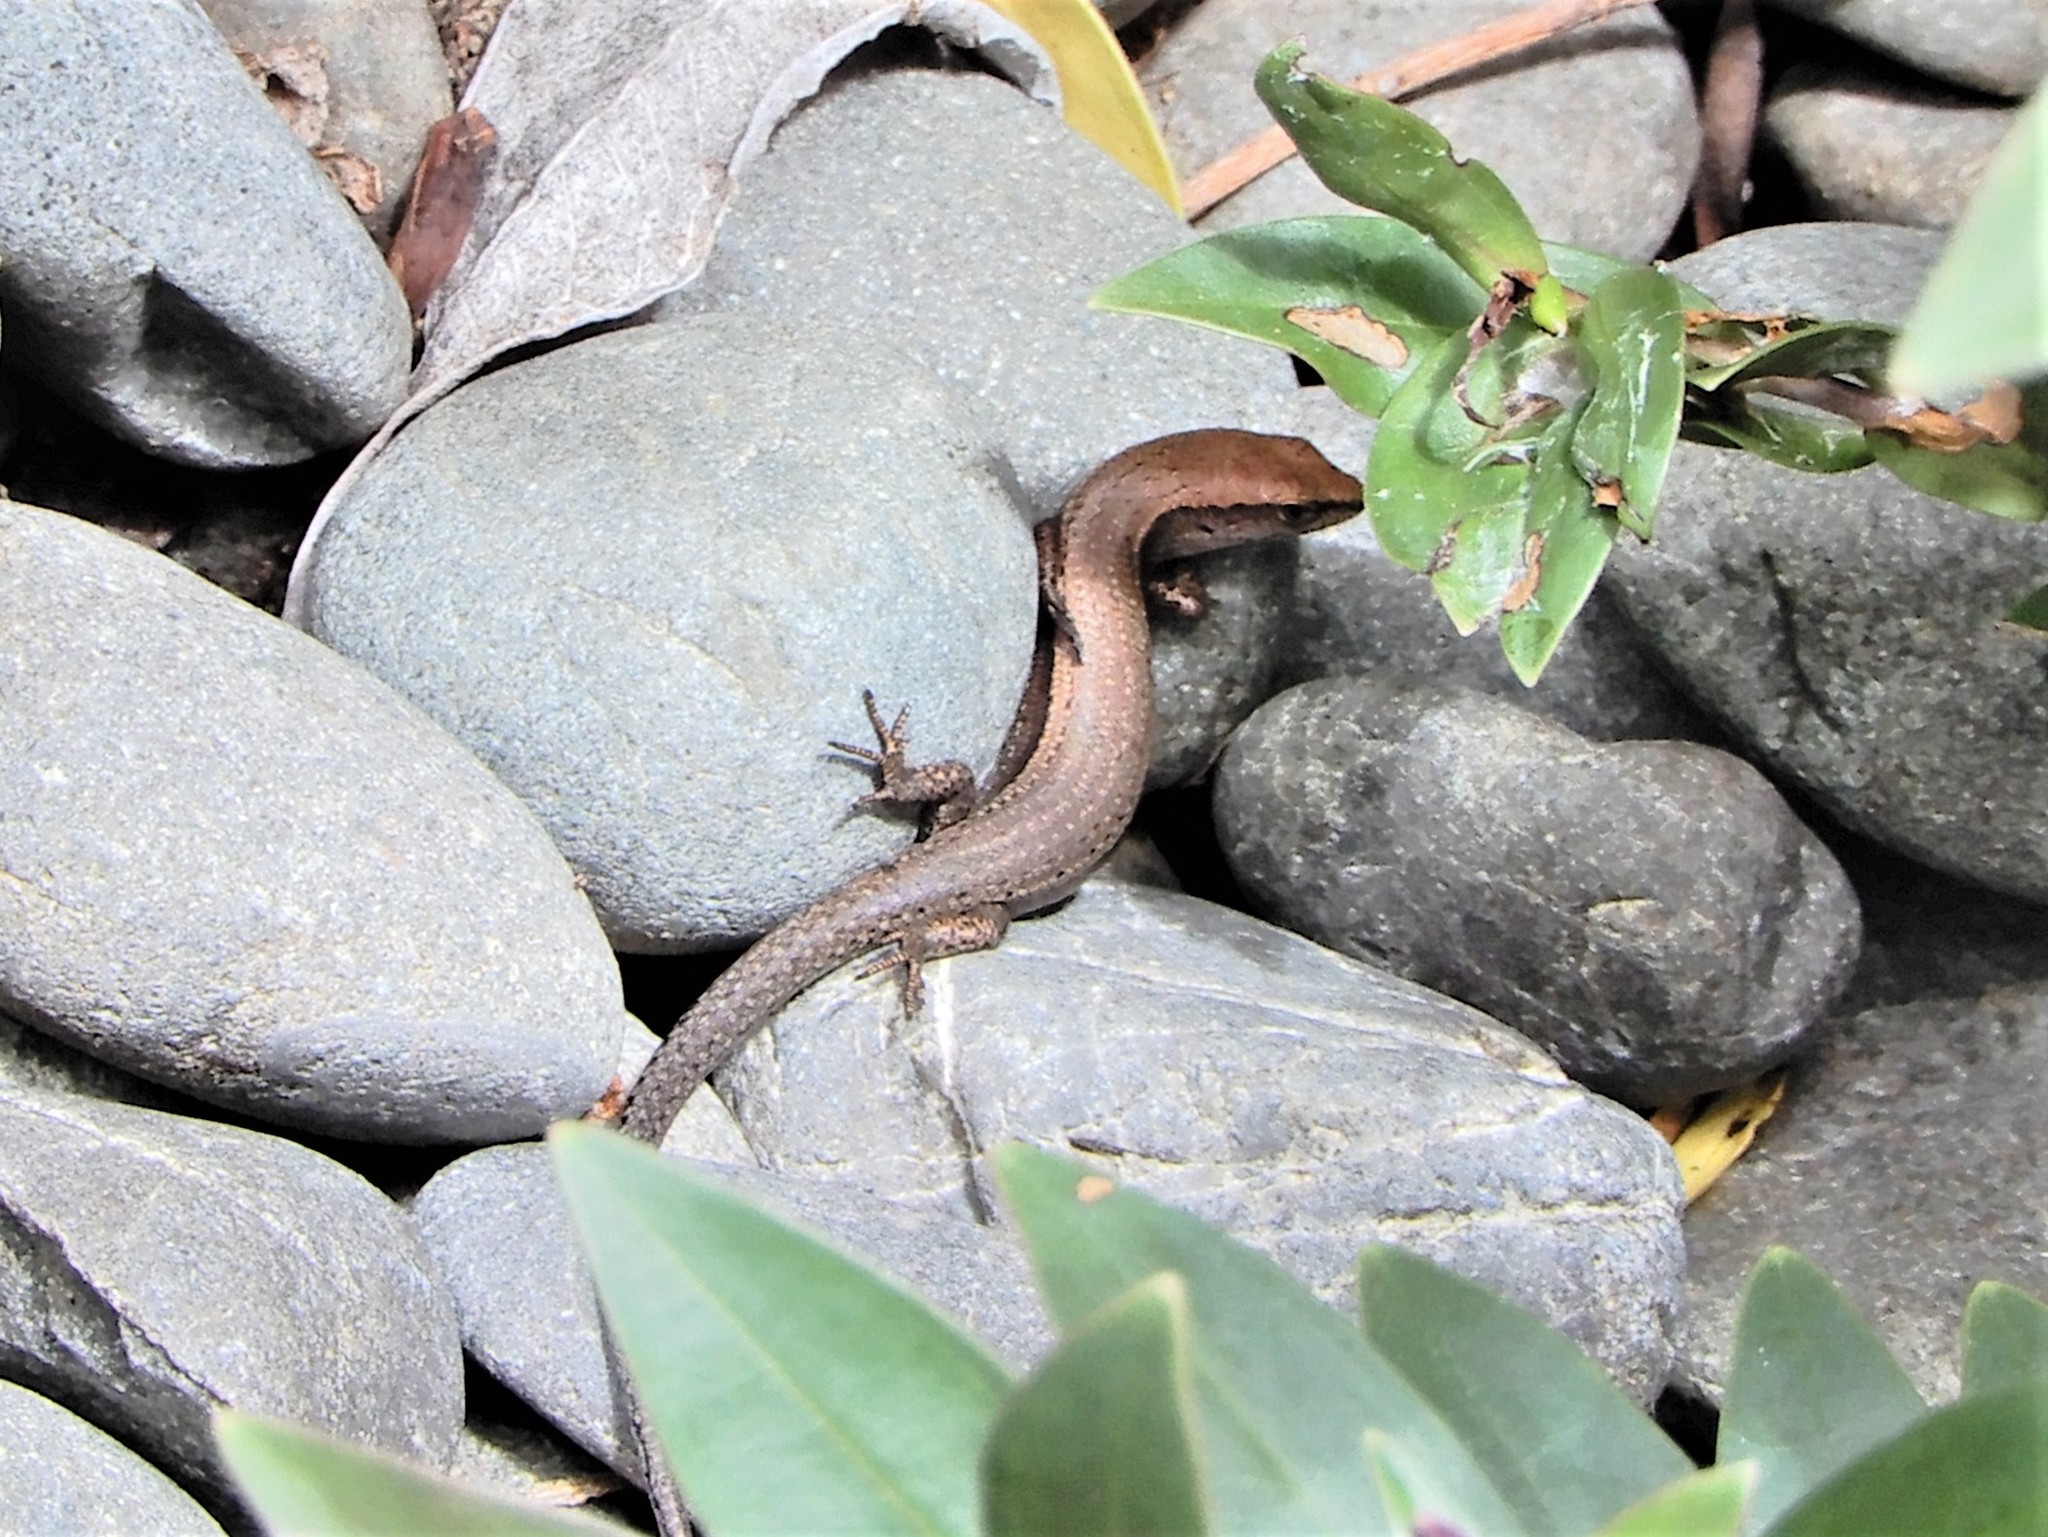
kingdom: Animalia
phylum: Chordata
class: Squamata
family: Scincidae
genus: Lampropholis
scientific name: Lampropholis delicata
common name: Plague skink
